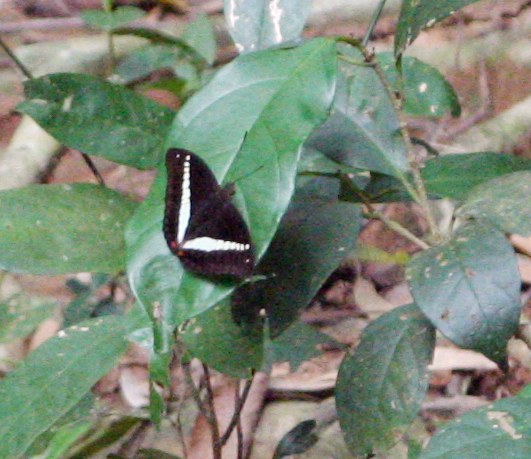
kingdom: Animalia
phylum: Arthropoda
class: Insecta
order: Lepidoptera
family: Nymphalidae
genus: Euthalia
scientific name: Euthalia recta
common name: Redtail marquis
